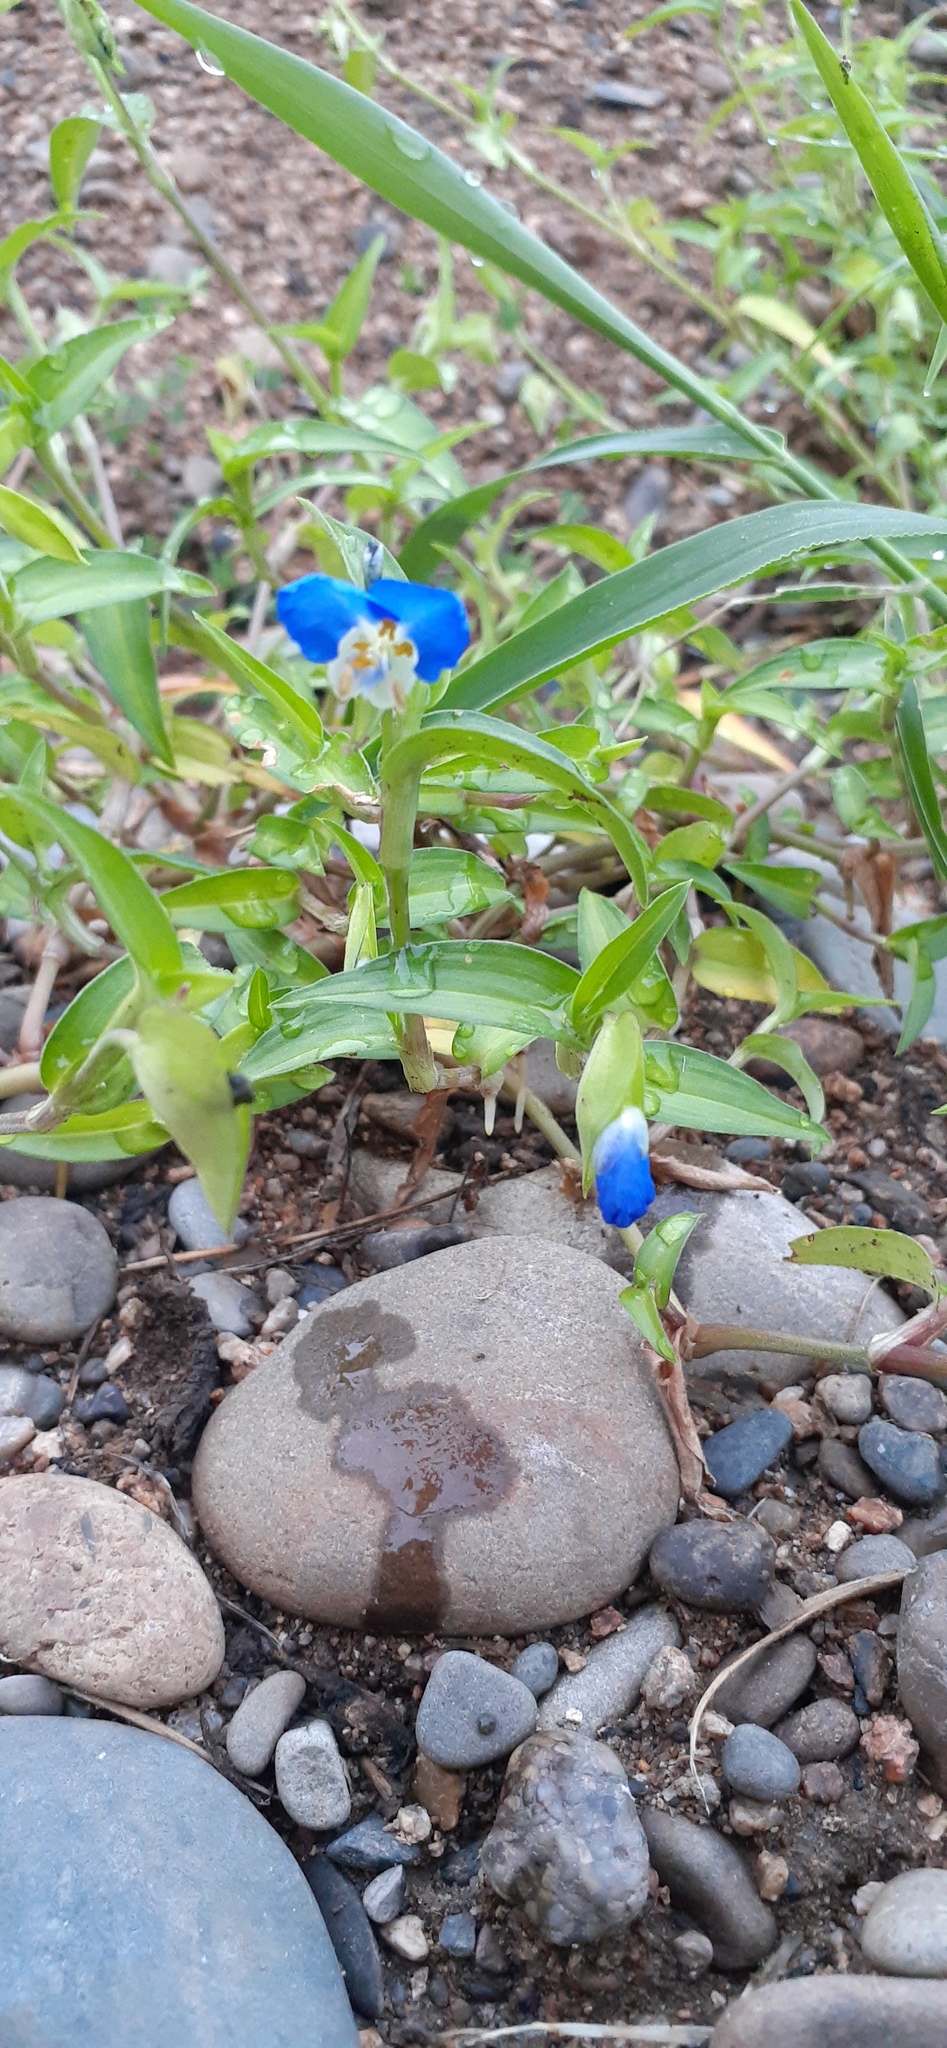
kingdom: Plantae
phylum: Tracheophyta
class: Liliopsida
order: Commelinales
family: Commelinaceae
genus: Commelina
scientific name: Commelina communis
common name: Asiatic dayflower
